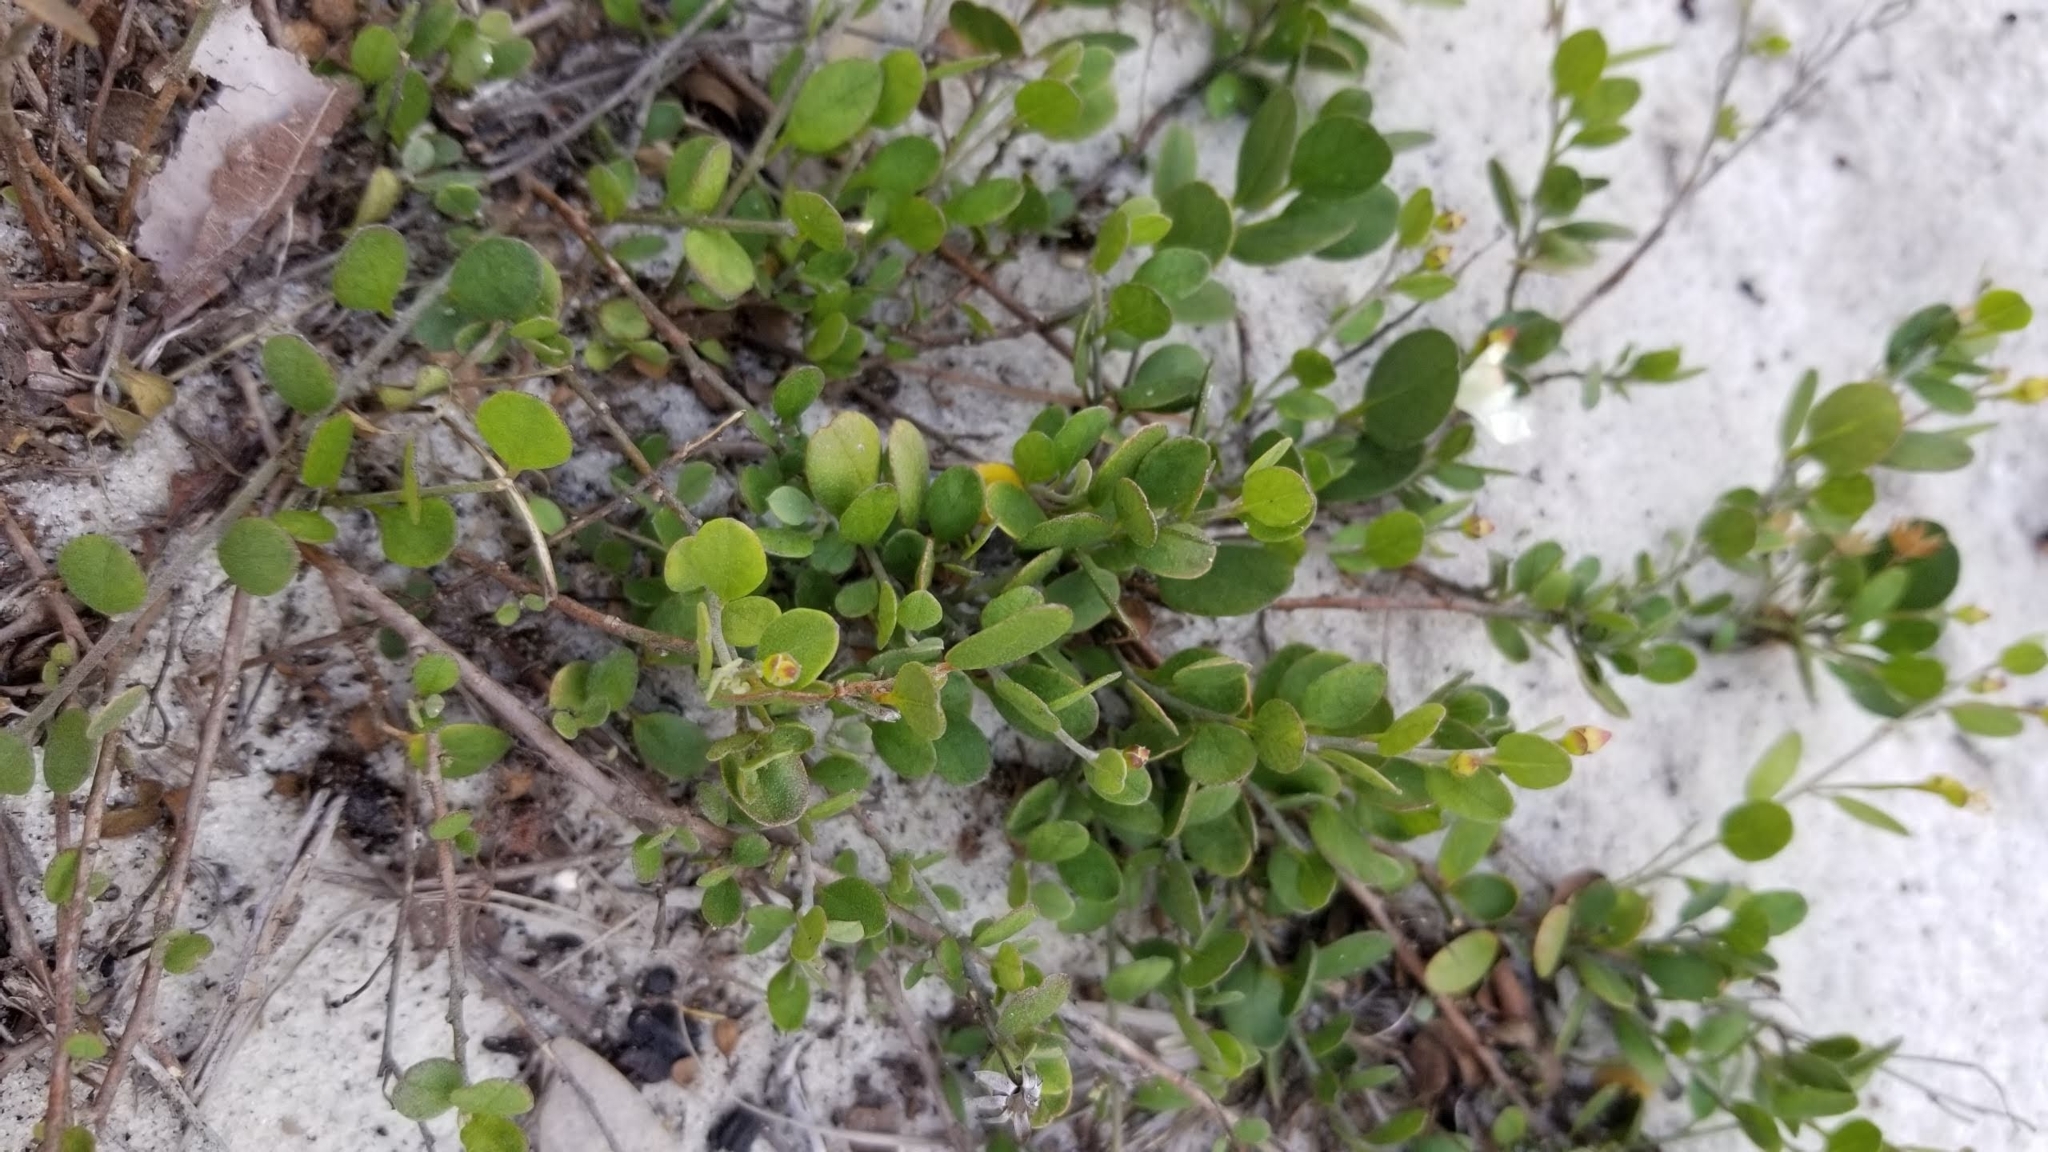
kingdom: Plantae
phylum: Tracheophyta
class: Magnoliopsida
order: Solanales
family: Convolvulaceae
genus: Jacquemontia
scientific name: Jacquemontia reclinata
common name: Beach jacquemontia
